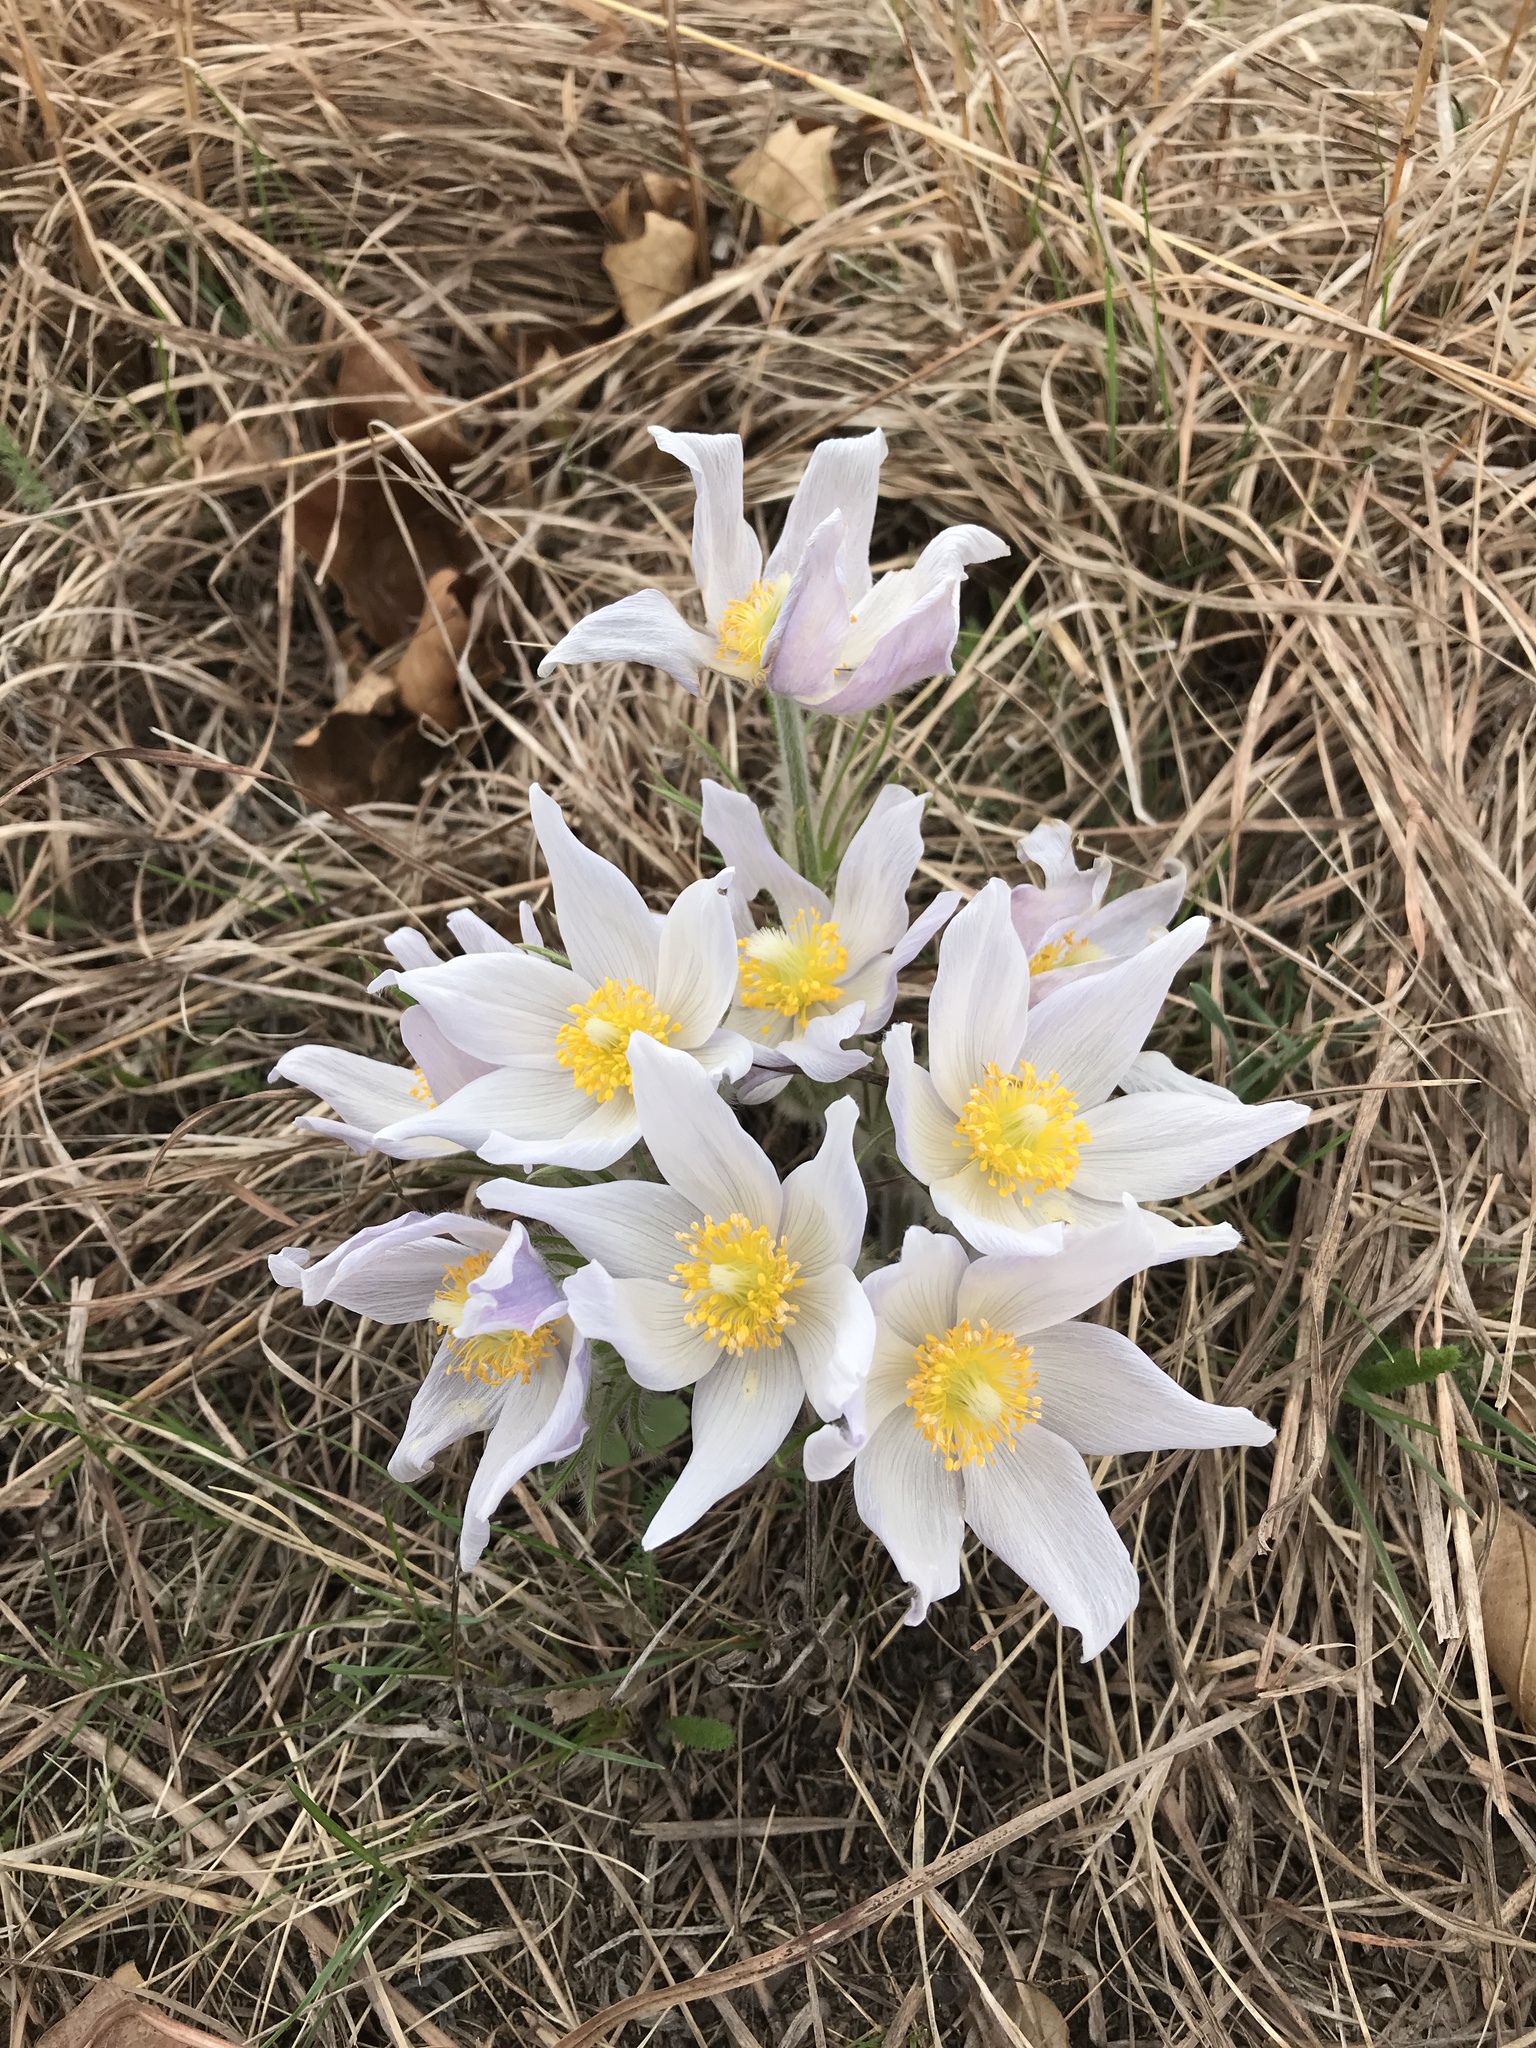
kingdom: Plantae
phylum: Tracheophyta
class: Magnoliopsida
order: Ranunculales
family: Ranunculaceae
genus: Pulsatilla
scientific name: Pulsatilla nuttalliana
